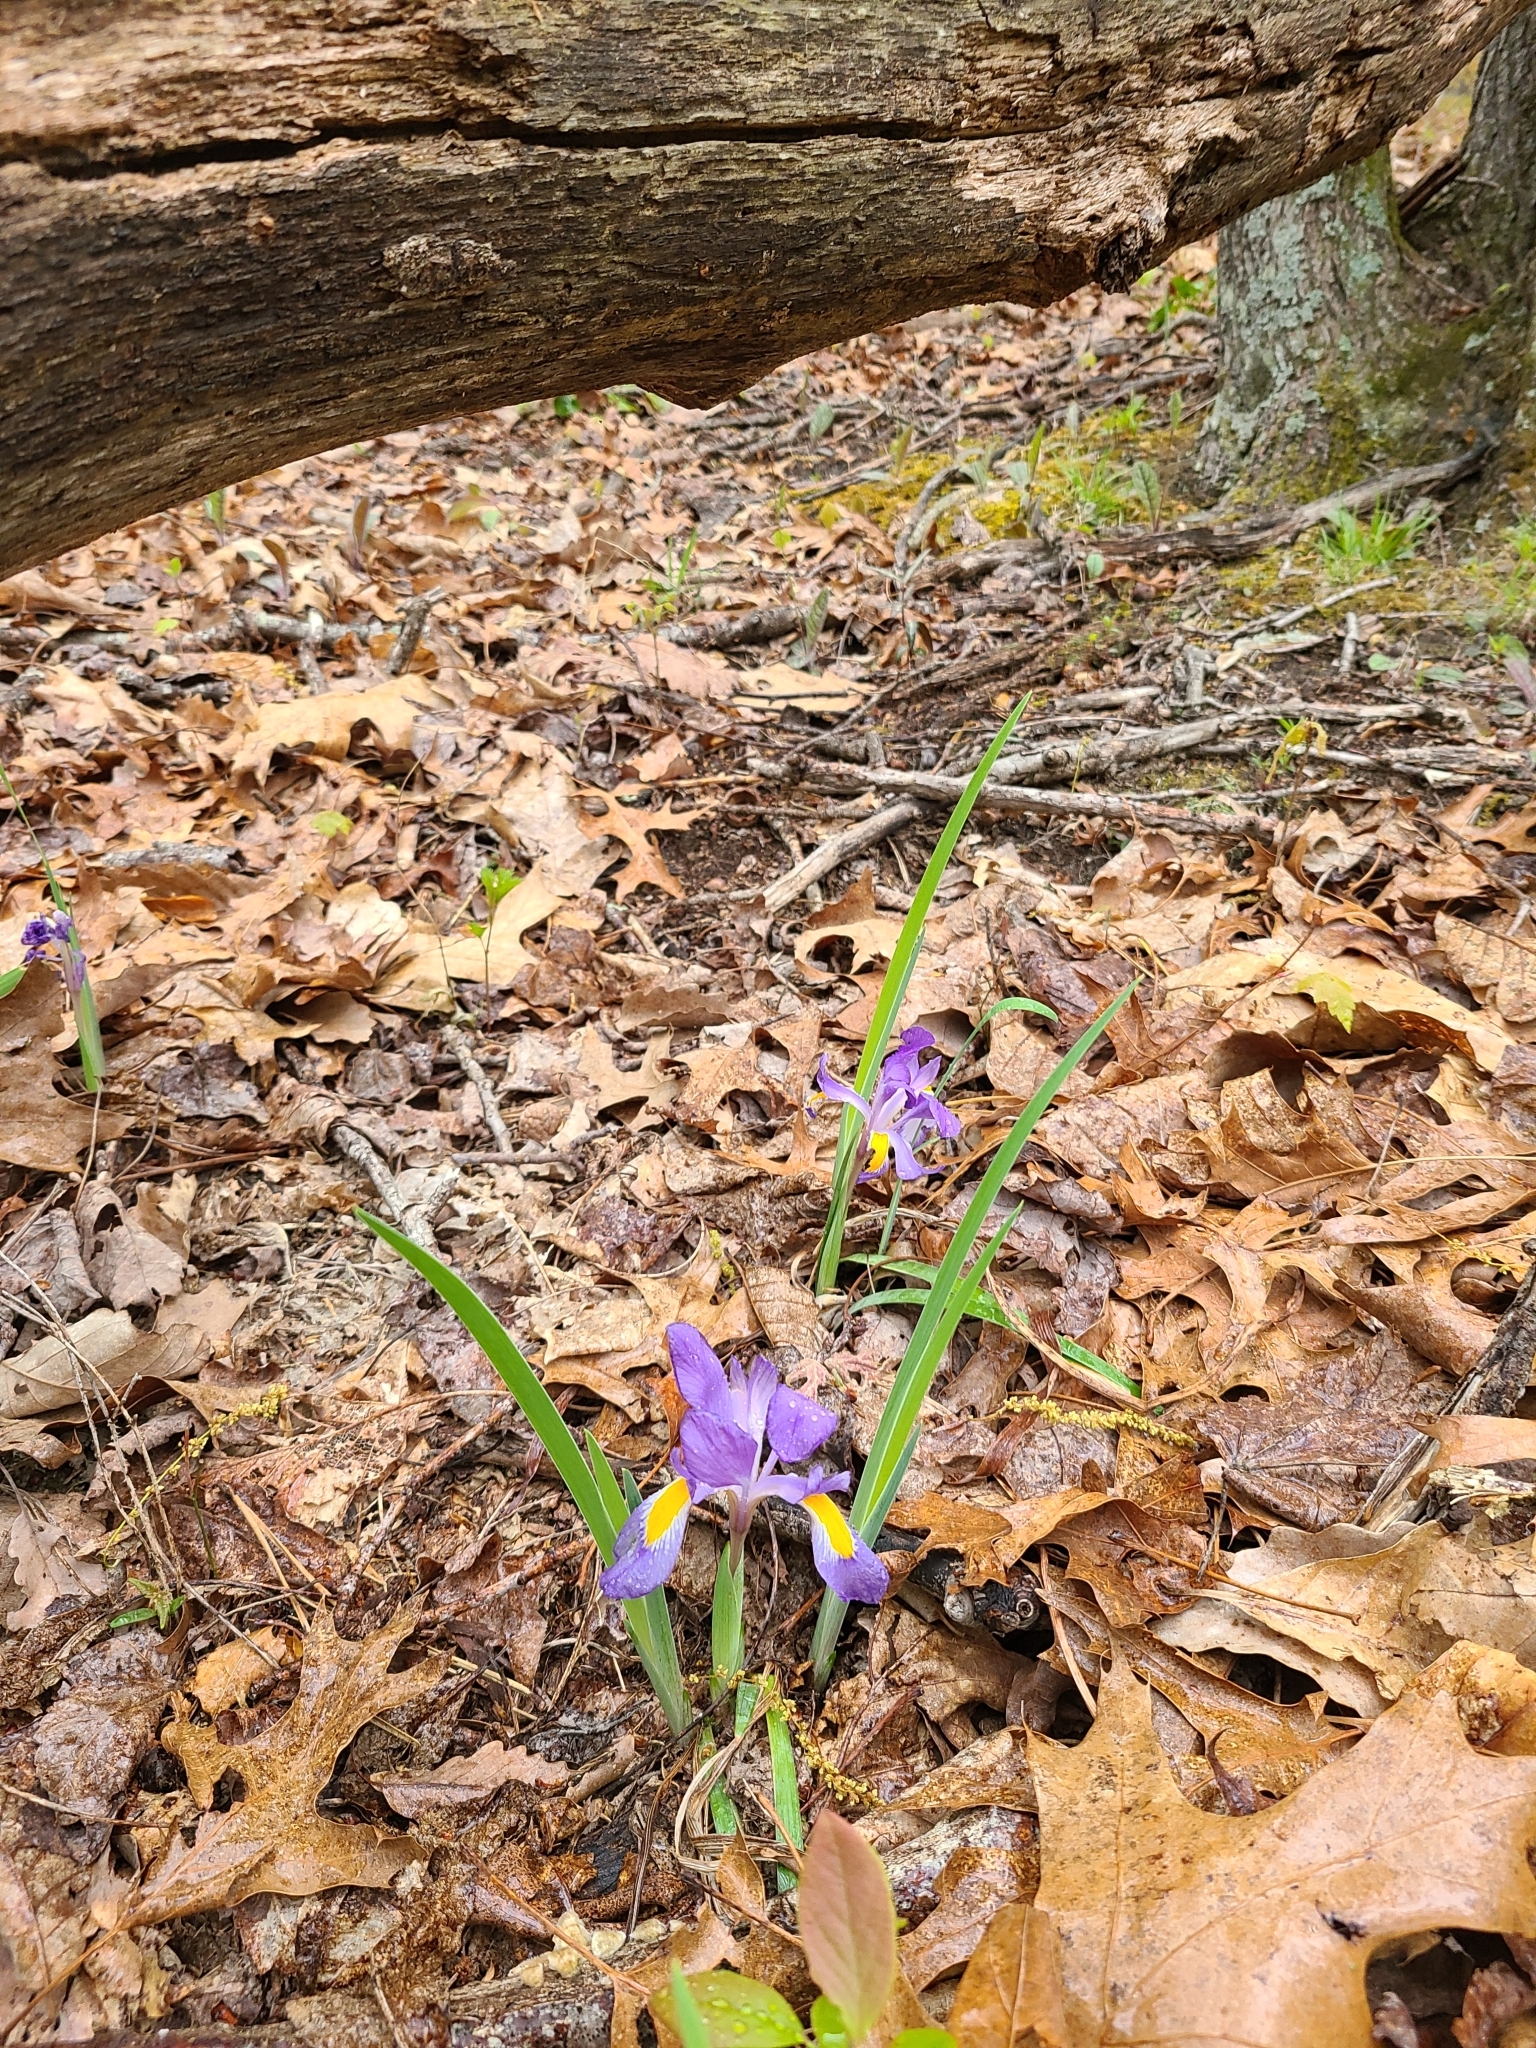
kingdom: Plantae
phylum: Tracheophyta
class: Liliopsida
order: Asparagales
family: Iridaceae
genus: Iris
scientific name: Iris verna
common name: Dwarf iris
